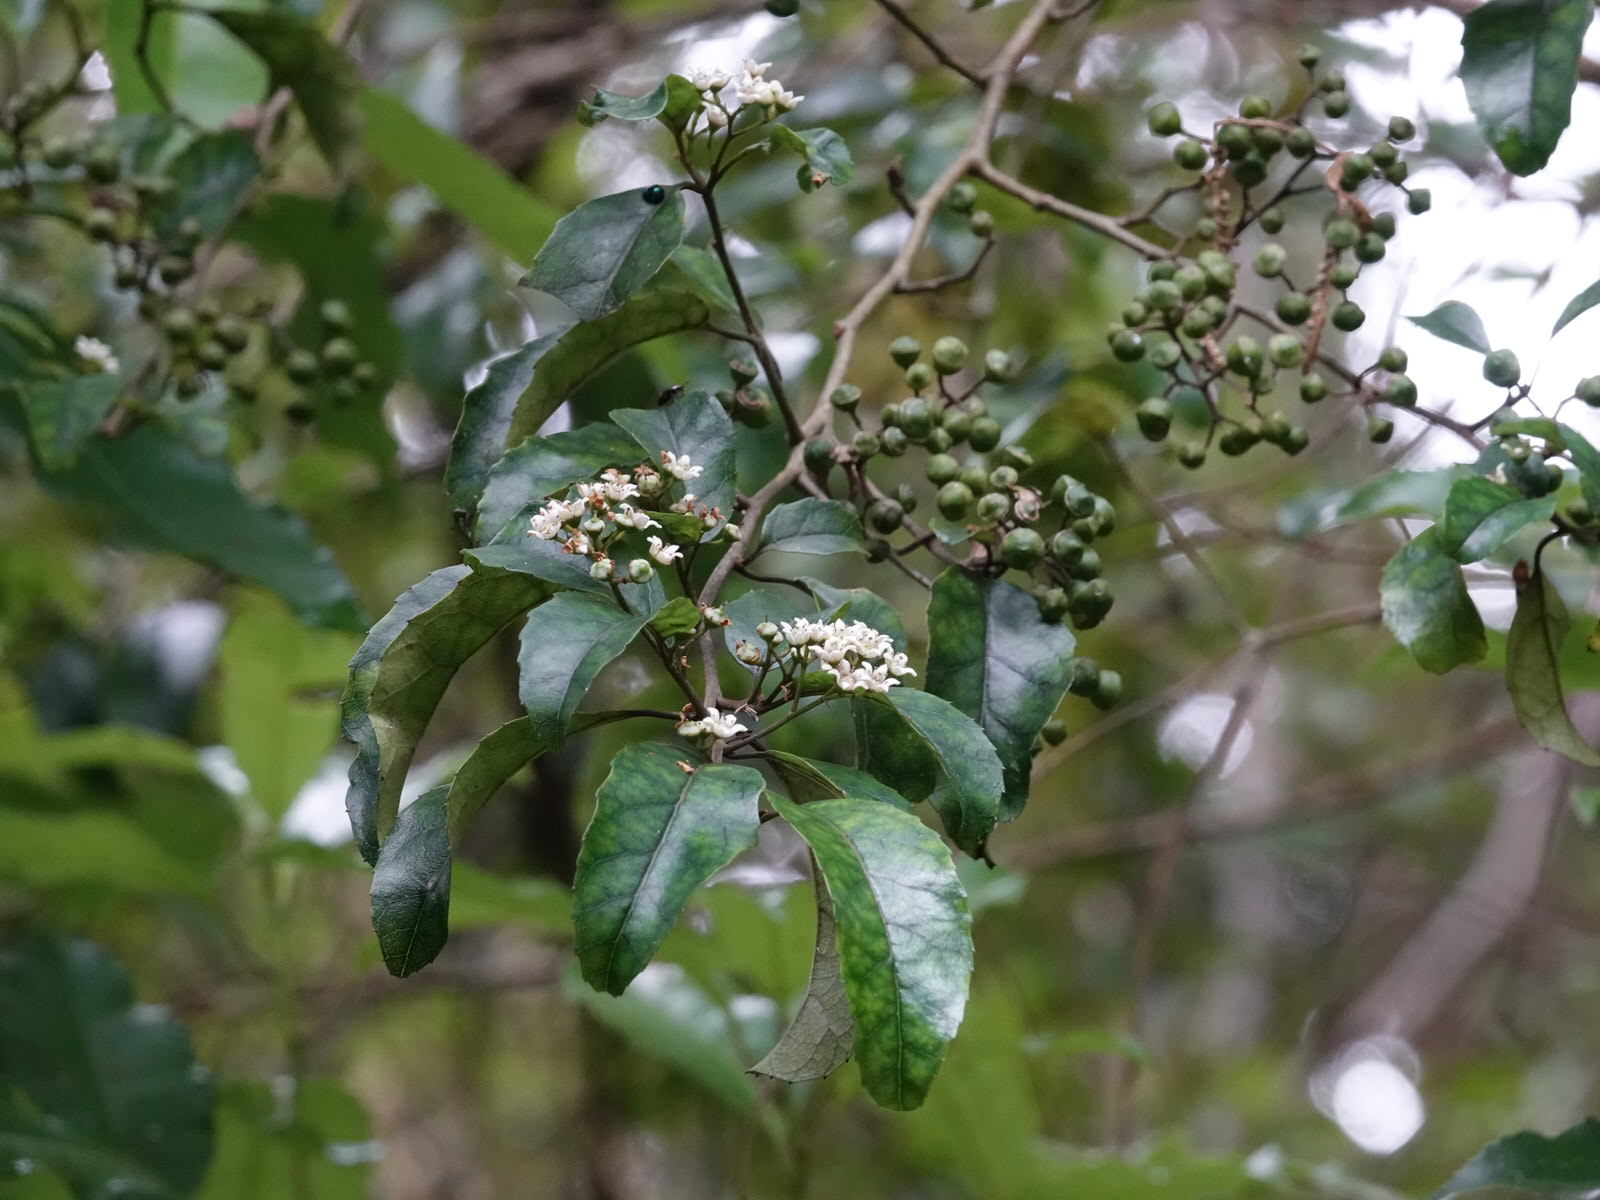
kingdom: Plantae
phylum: Tracheophyta
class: Magnoliopsida
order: Asterales
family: Rousseaceae
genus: Carpodetus
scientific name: Carpodetus serratus
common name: White mapau
